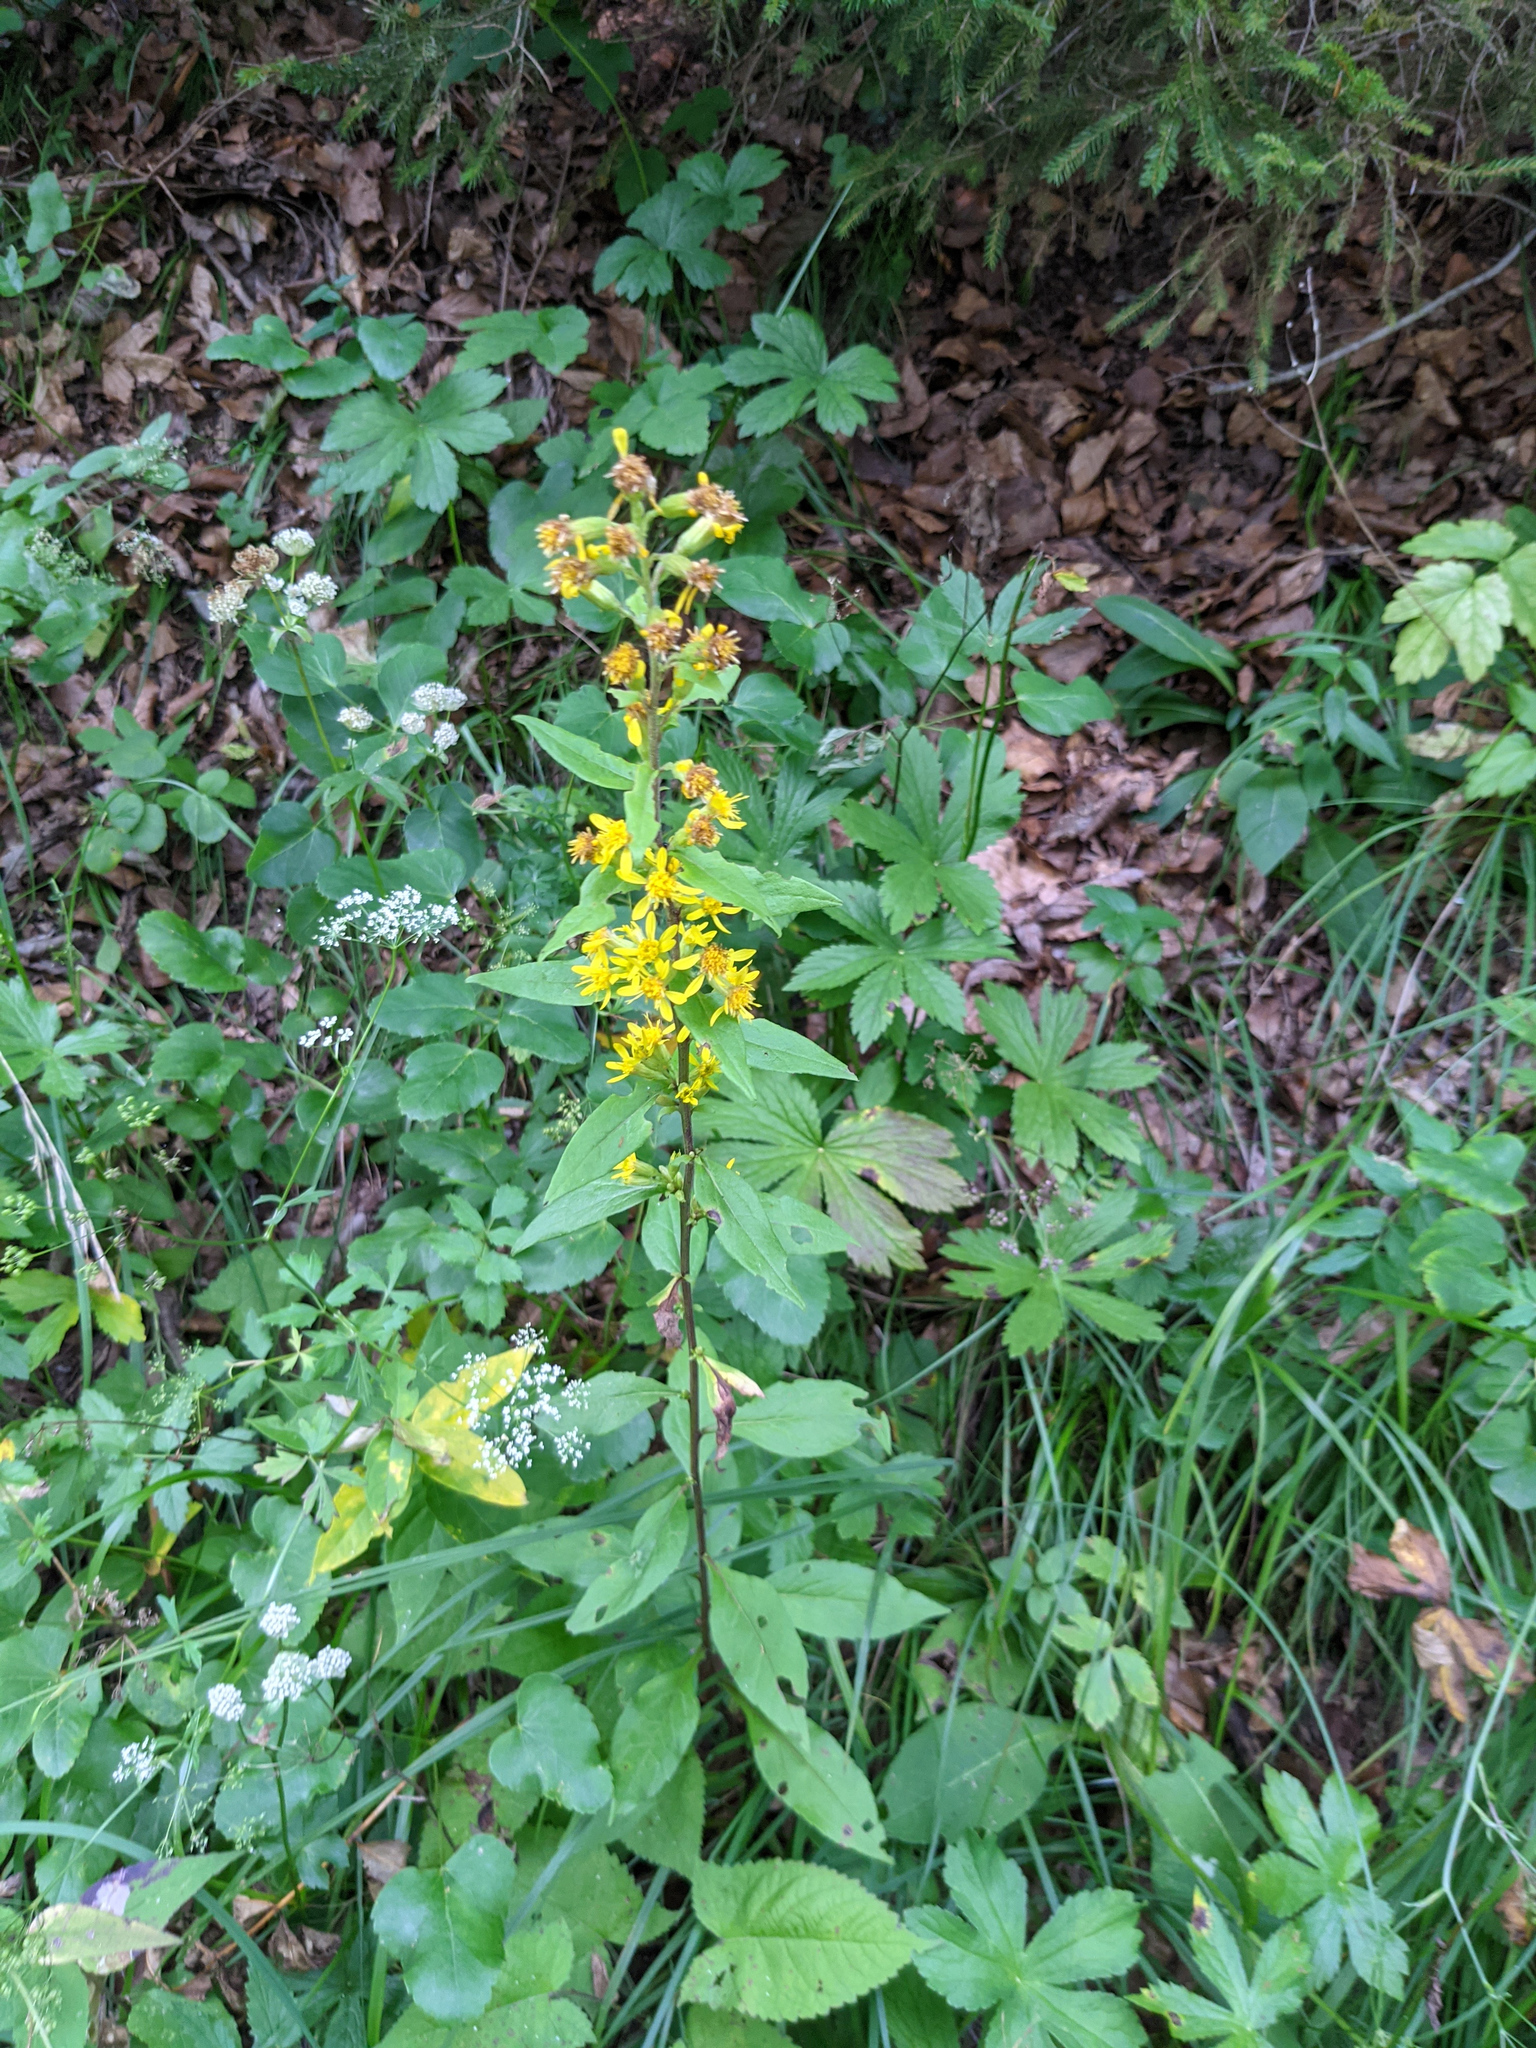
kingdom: Plantae
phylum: Tracheophyta
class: Magnoliopsida
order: Asterales
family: Asteraceae
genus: Solidago
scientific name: Solidago virgaurea
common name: Goldenrod
